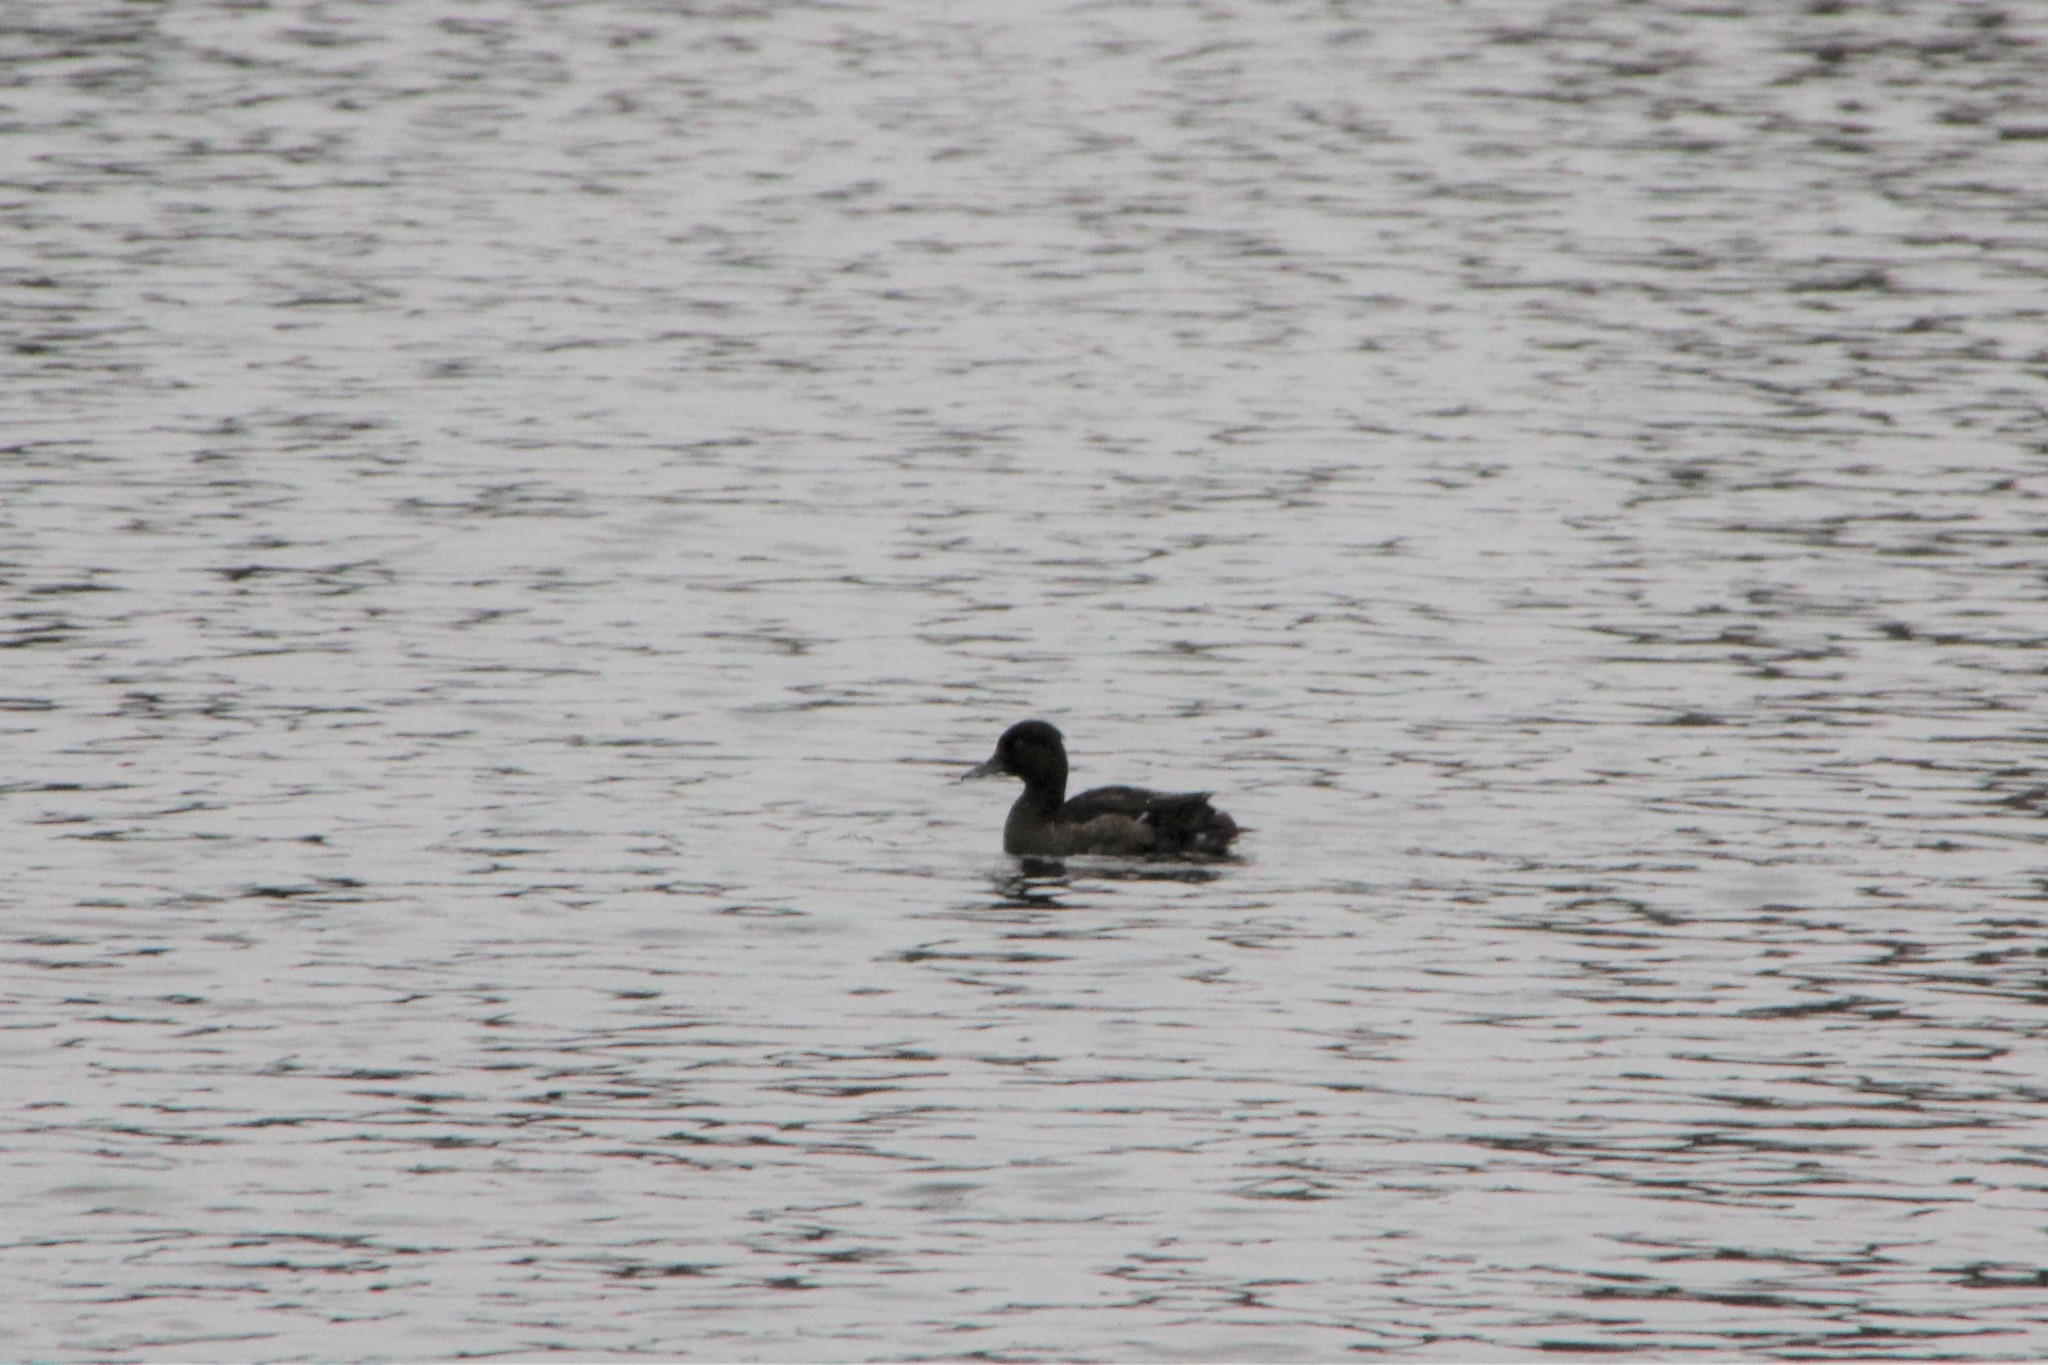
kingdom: Animalia
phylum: Chordata
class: Aves
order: Anseriformes
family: Anatidae
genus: Aythya
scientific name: Aythya fuligula
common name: Tufted duck
